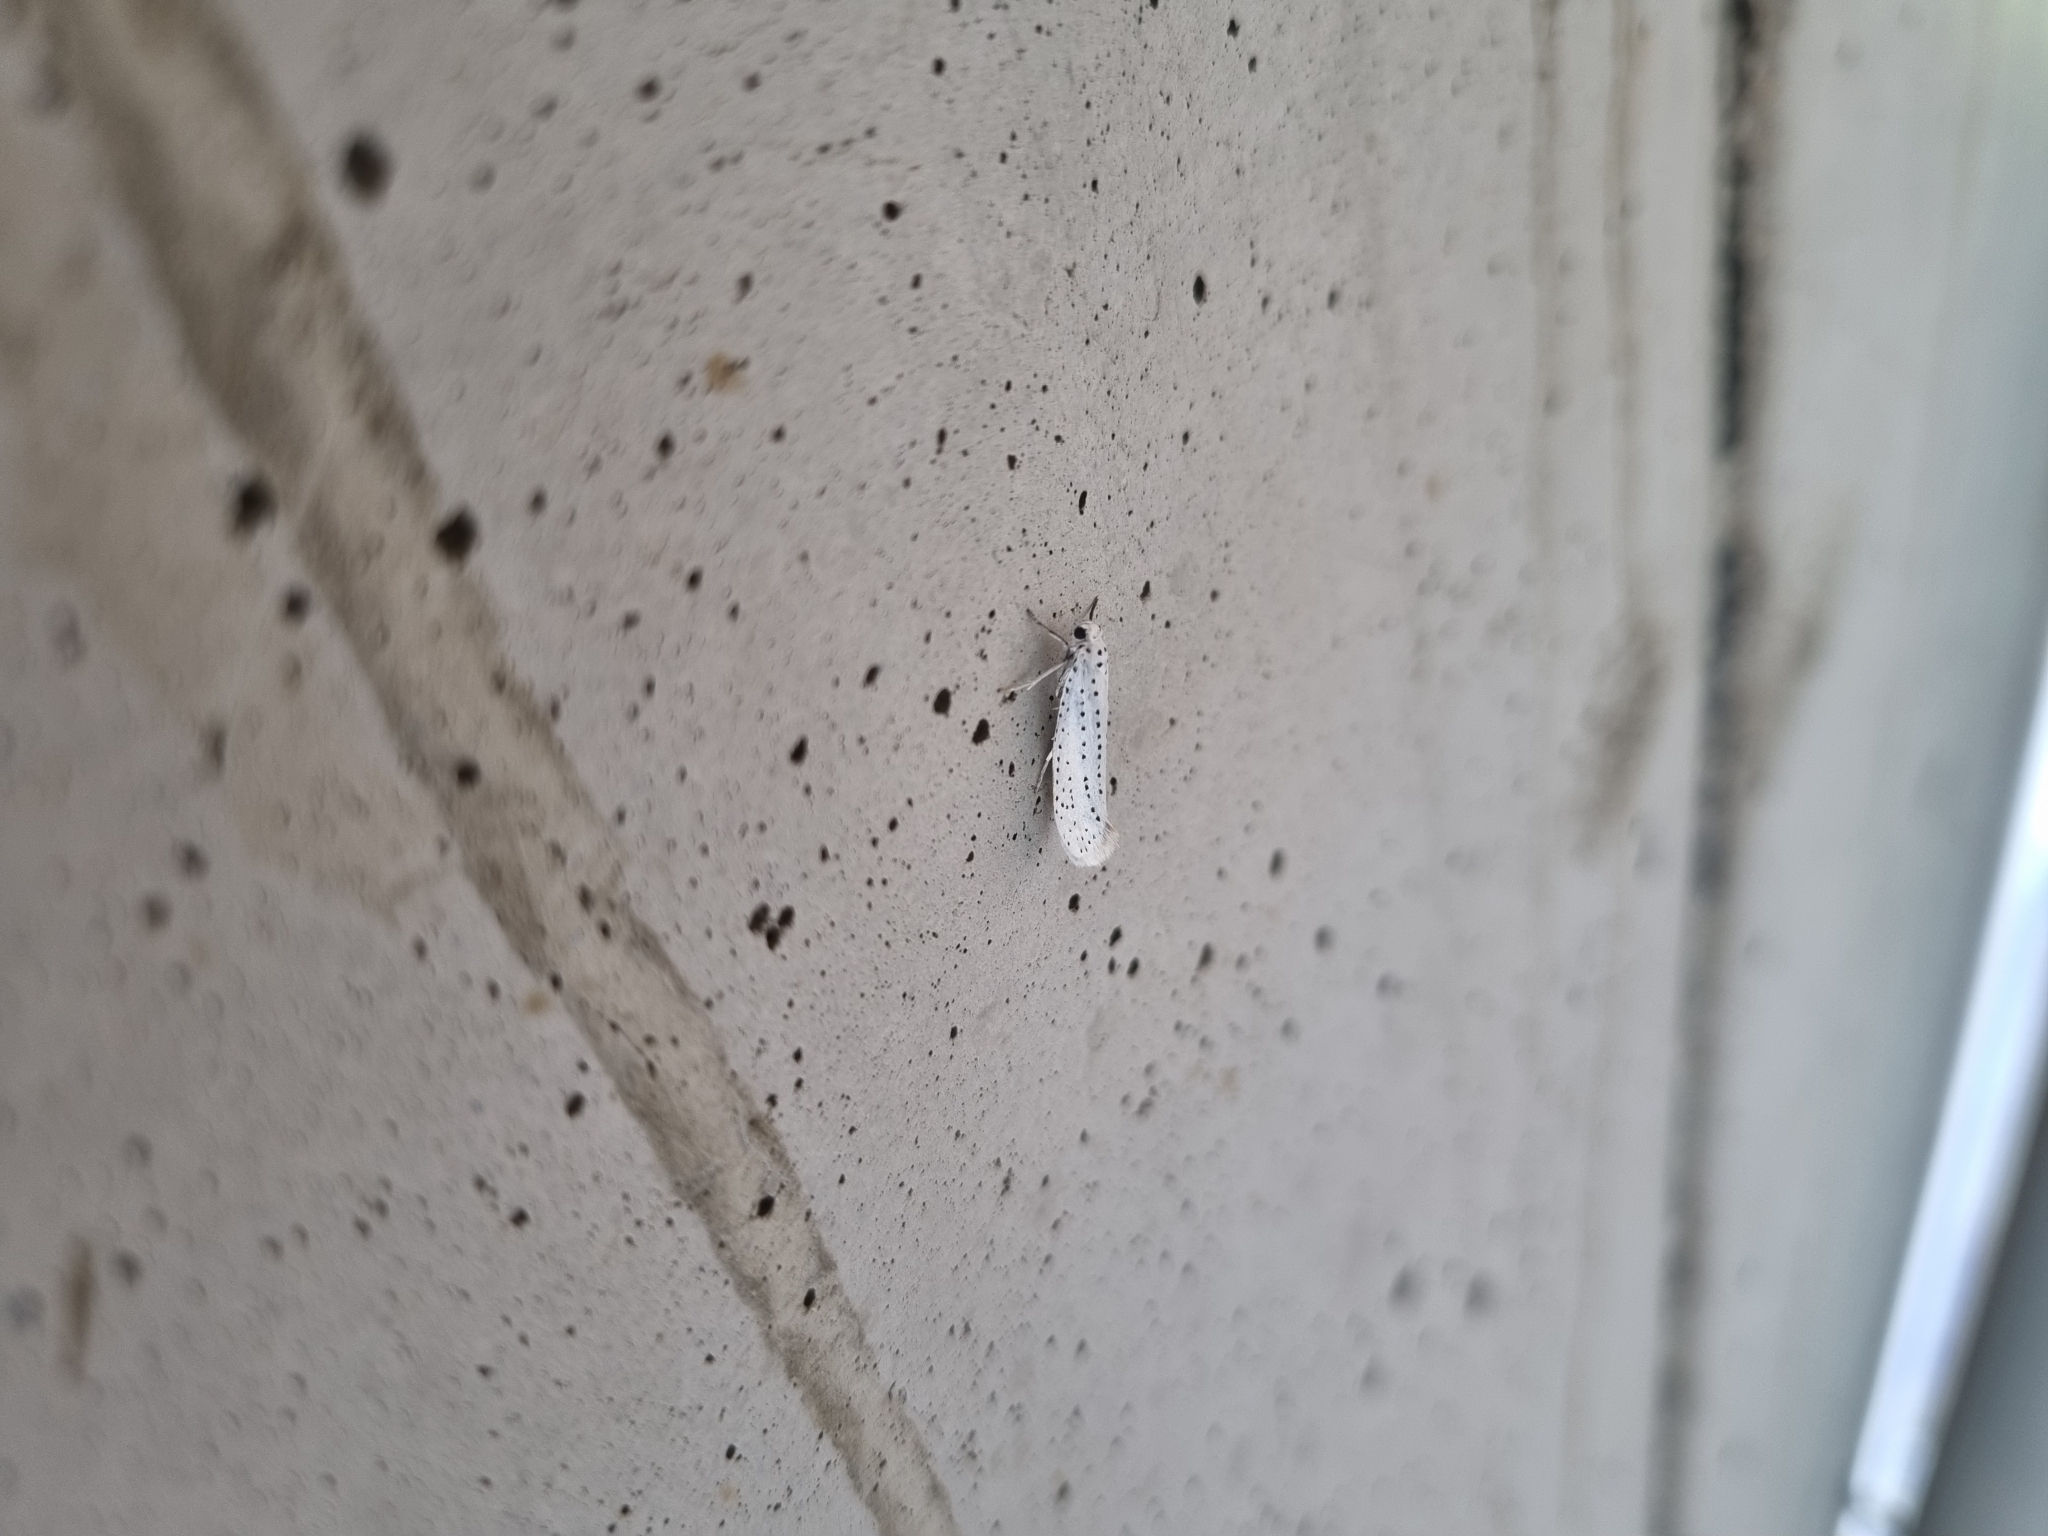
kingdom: Animalia
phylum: Arthropoda
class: Insecta
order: Lepidoptera
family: Yponomeutidae
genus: Yponomeuta
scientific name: Yponomeuta evonymella
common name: Bird-cherry ermine
